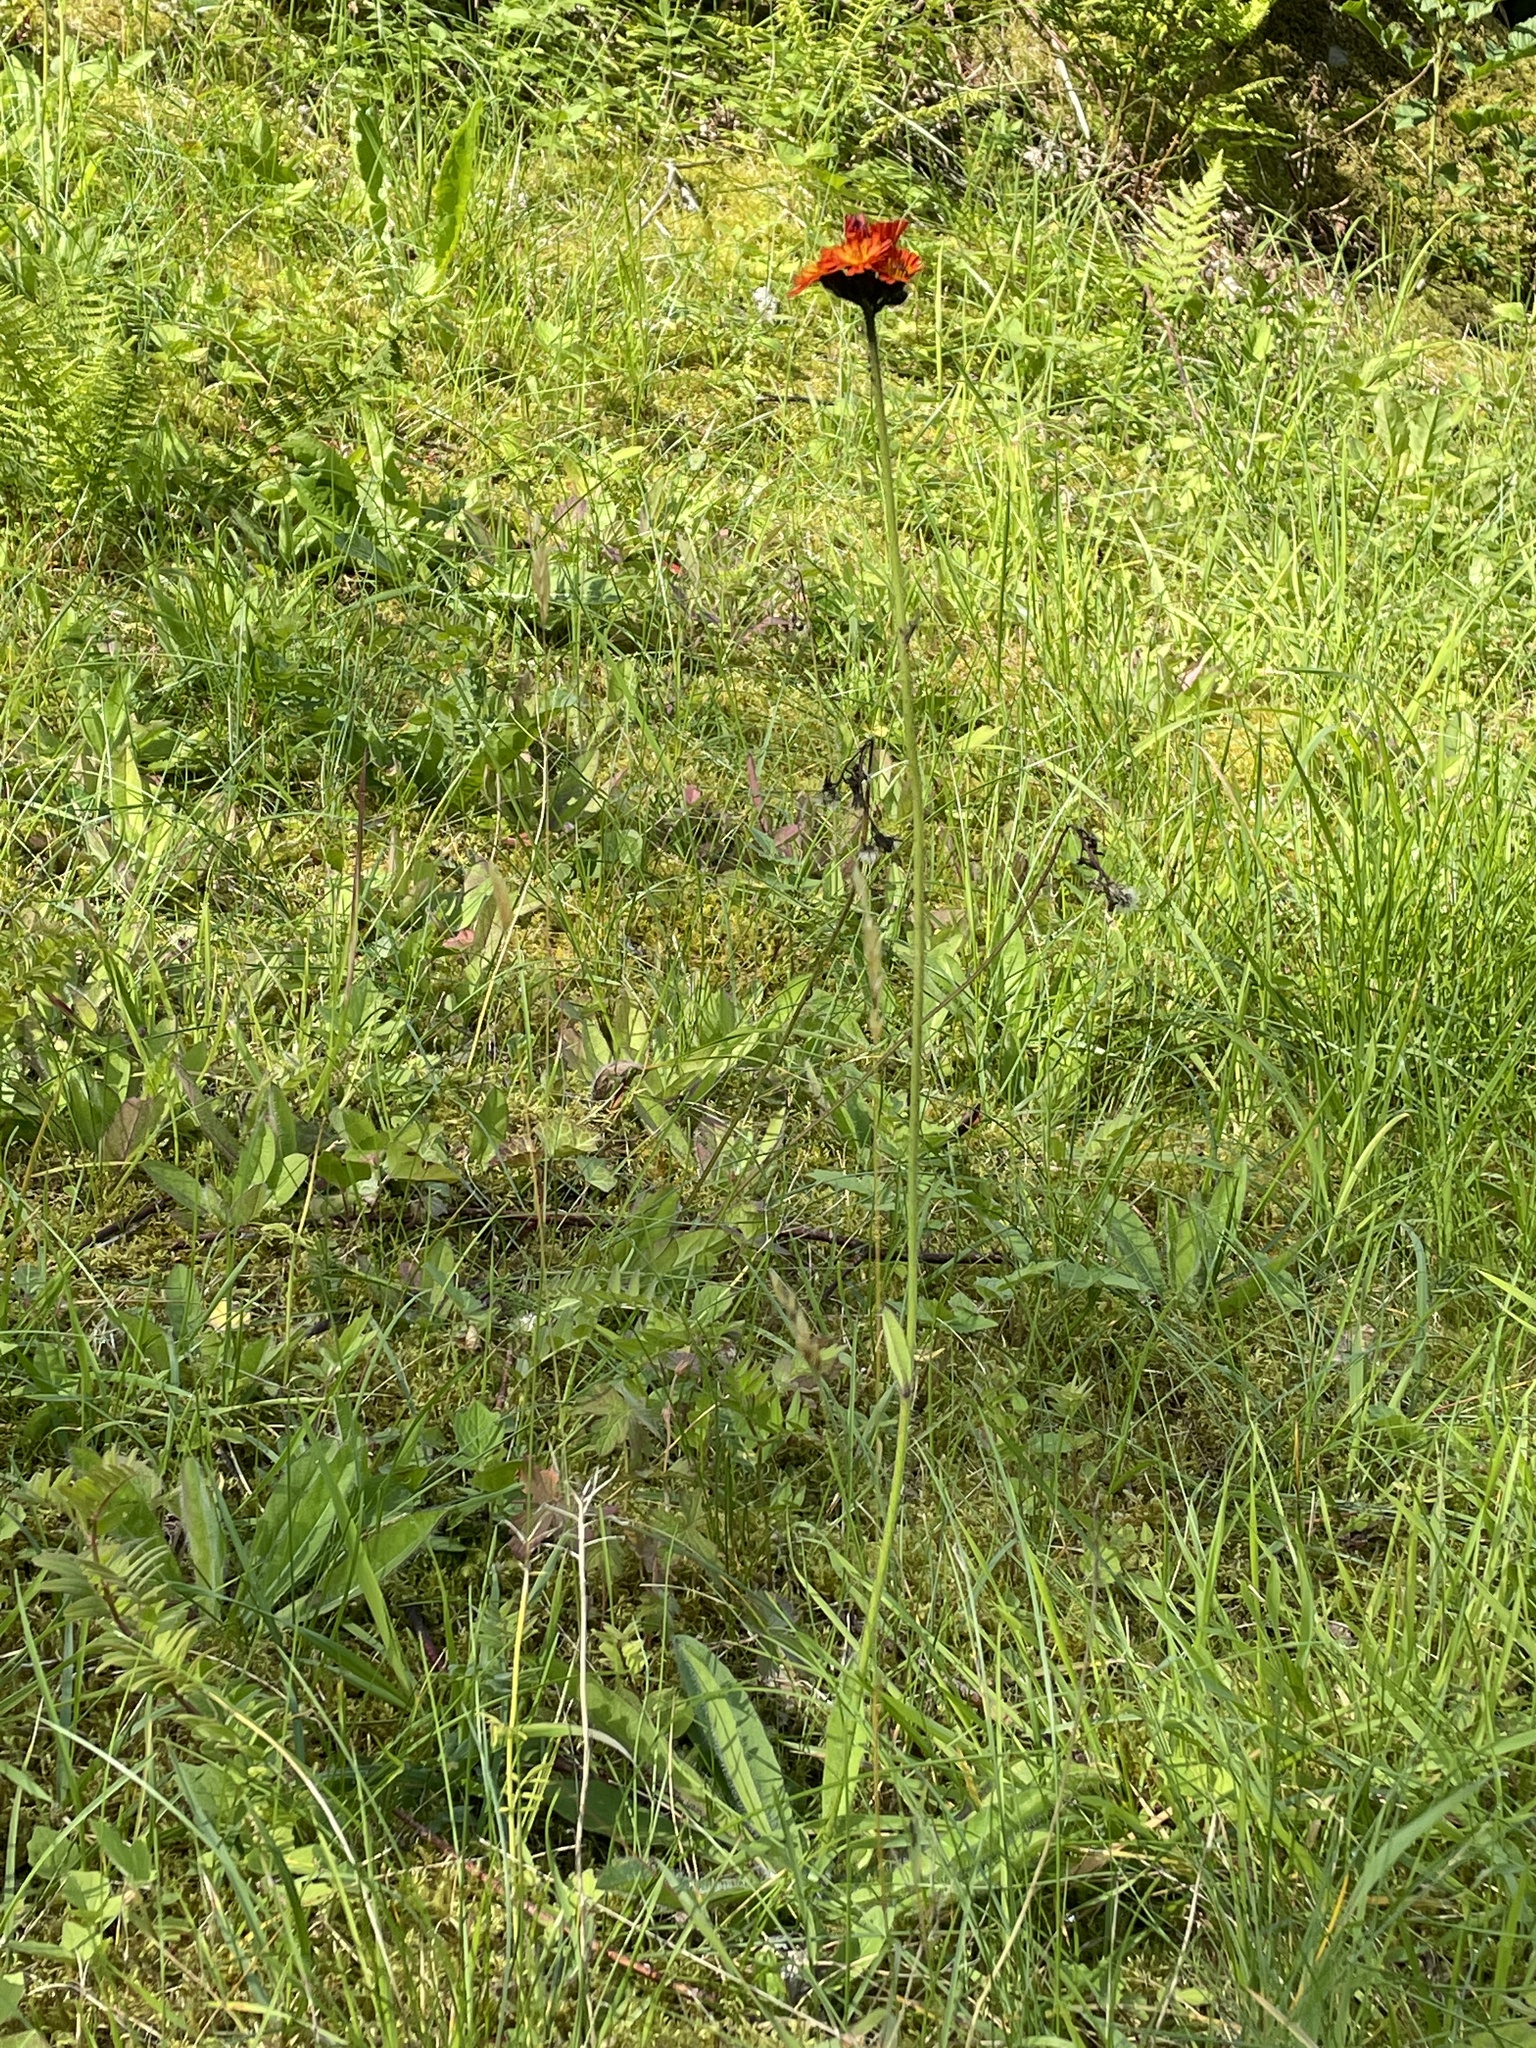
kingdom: Plantae
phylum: Tracheophyta
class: Magnoliopsida
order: Asterales
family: Asteraceae
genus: Pilosella
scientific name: Pilosella aurantiaca
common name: Fox-and-cubs
